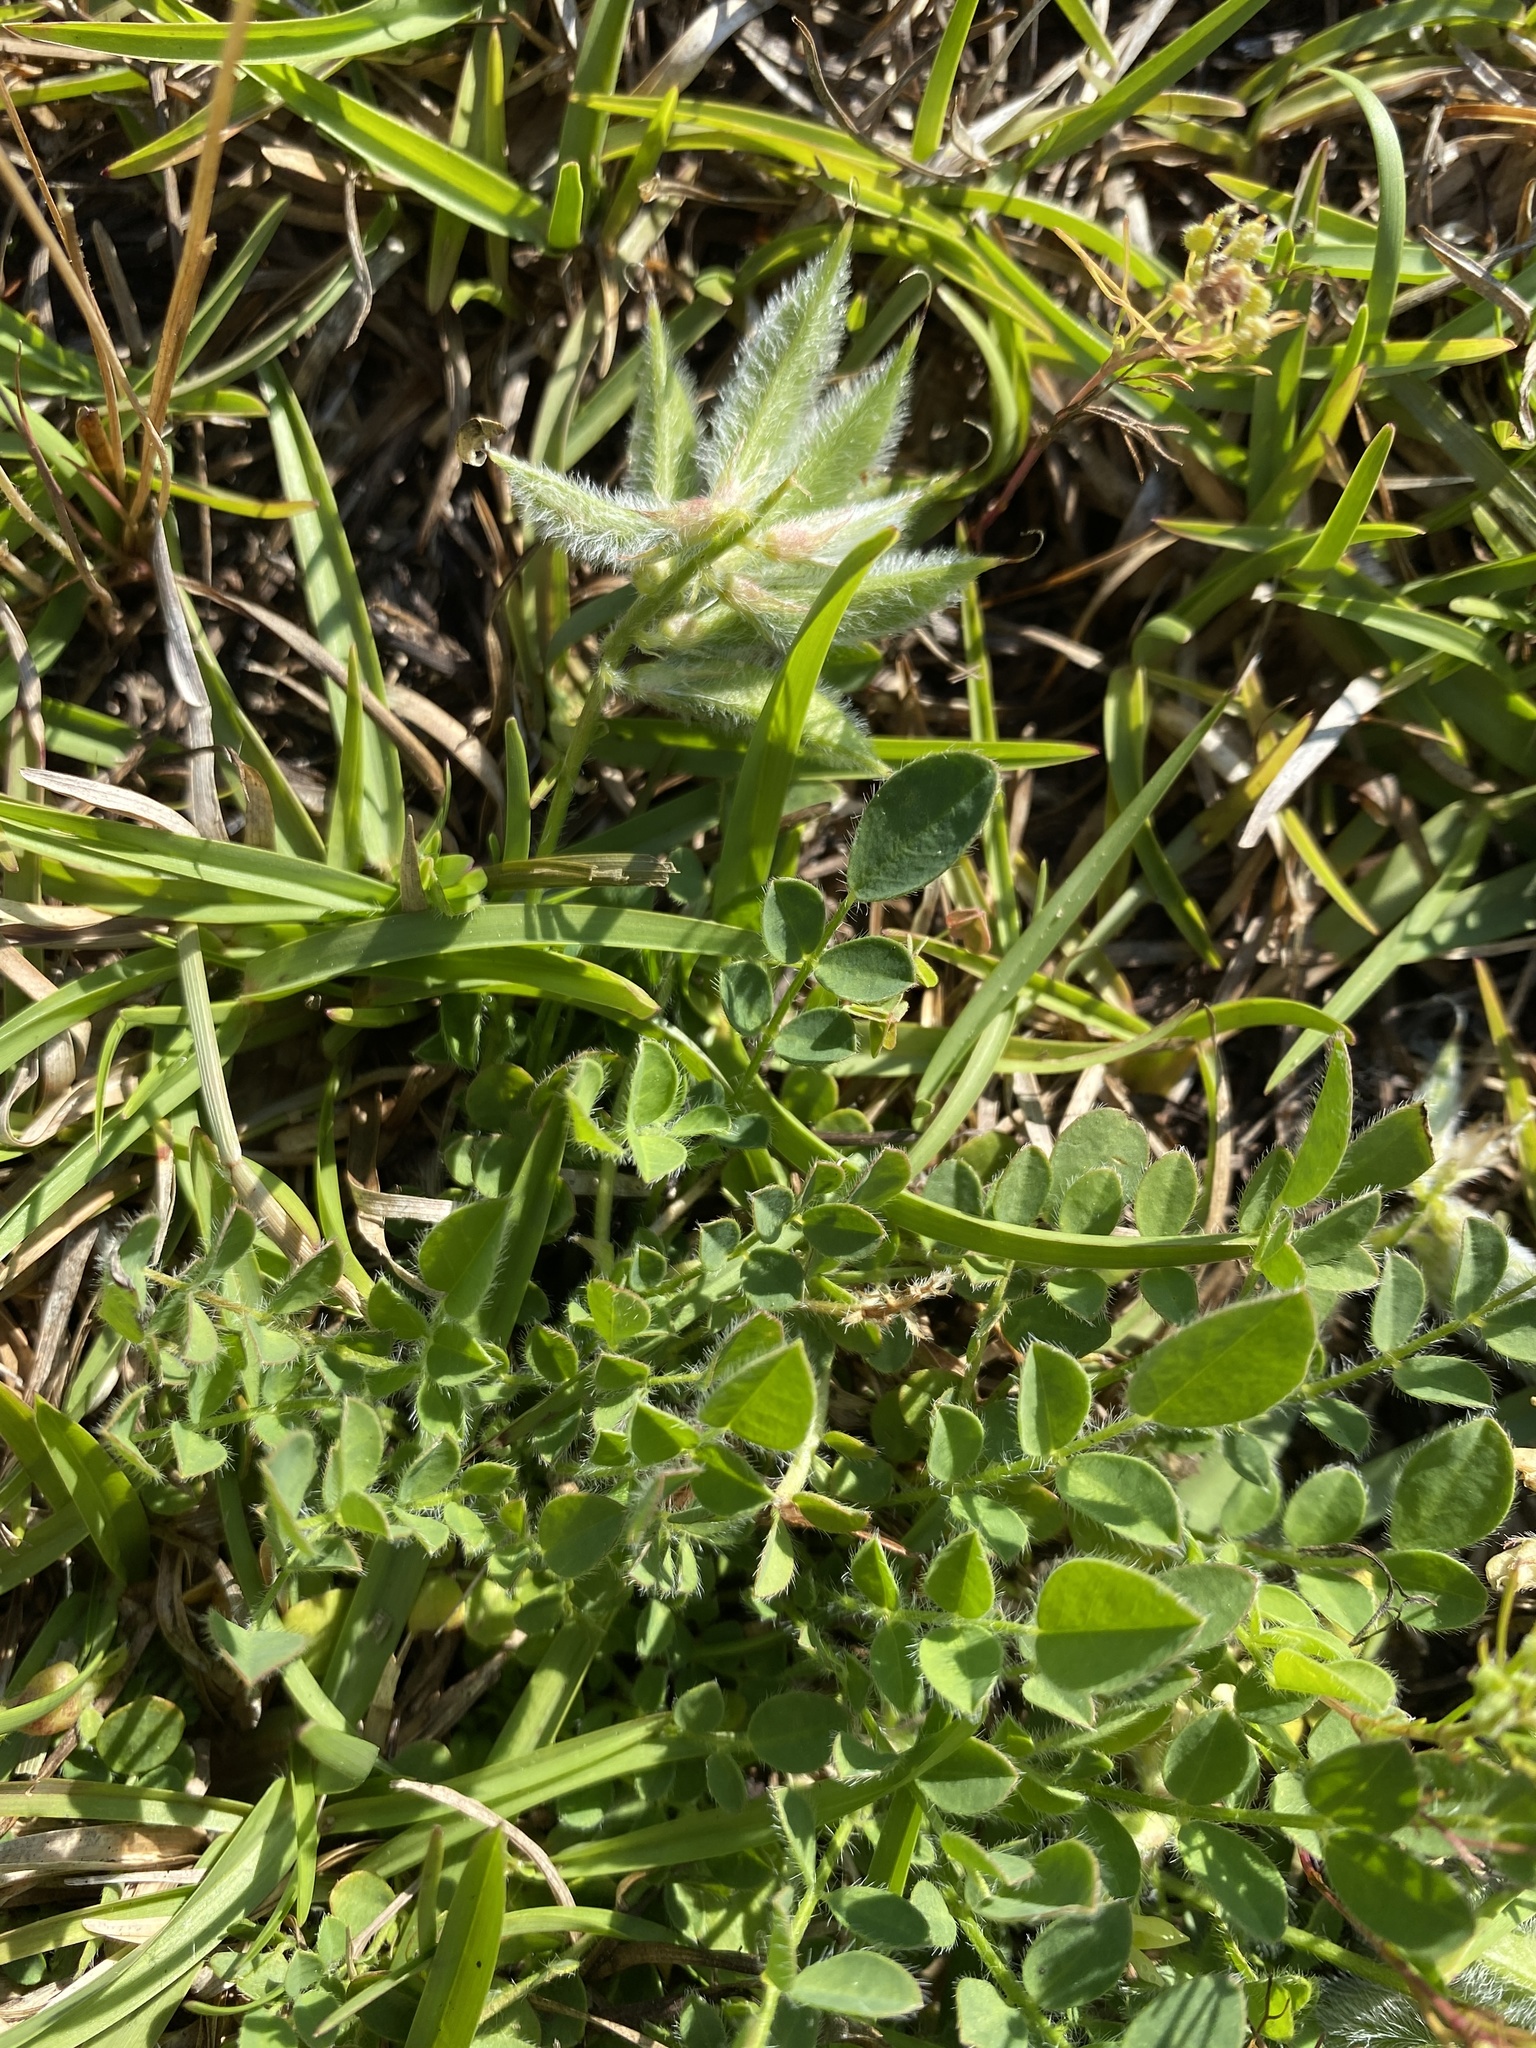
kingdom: Plantae
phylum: Tracheophyta
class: Magnoliopsida
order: Fabales
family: Fabaceae
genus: Astragalus
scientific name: Astragalus villosus
